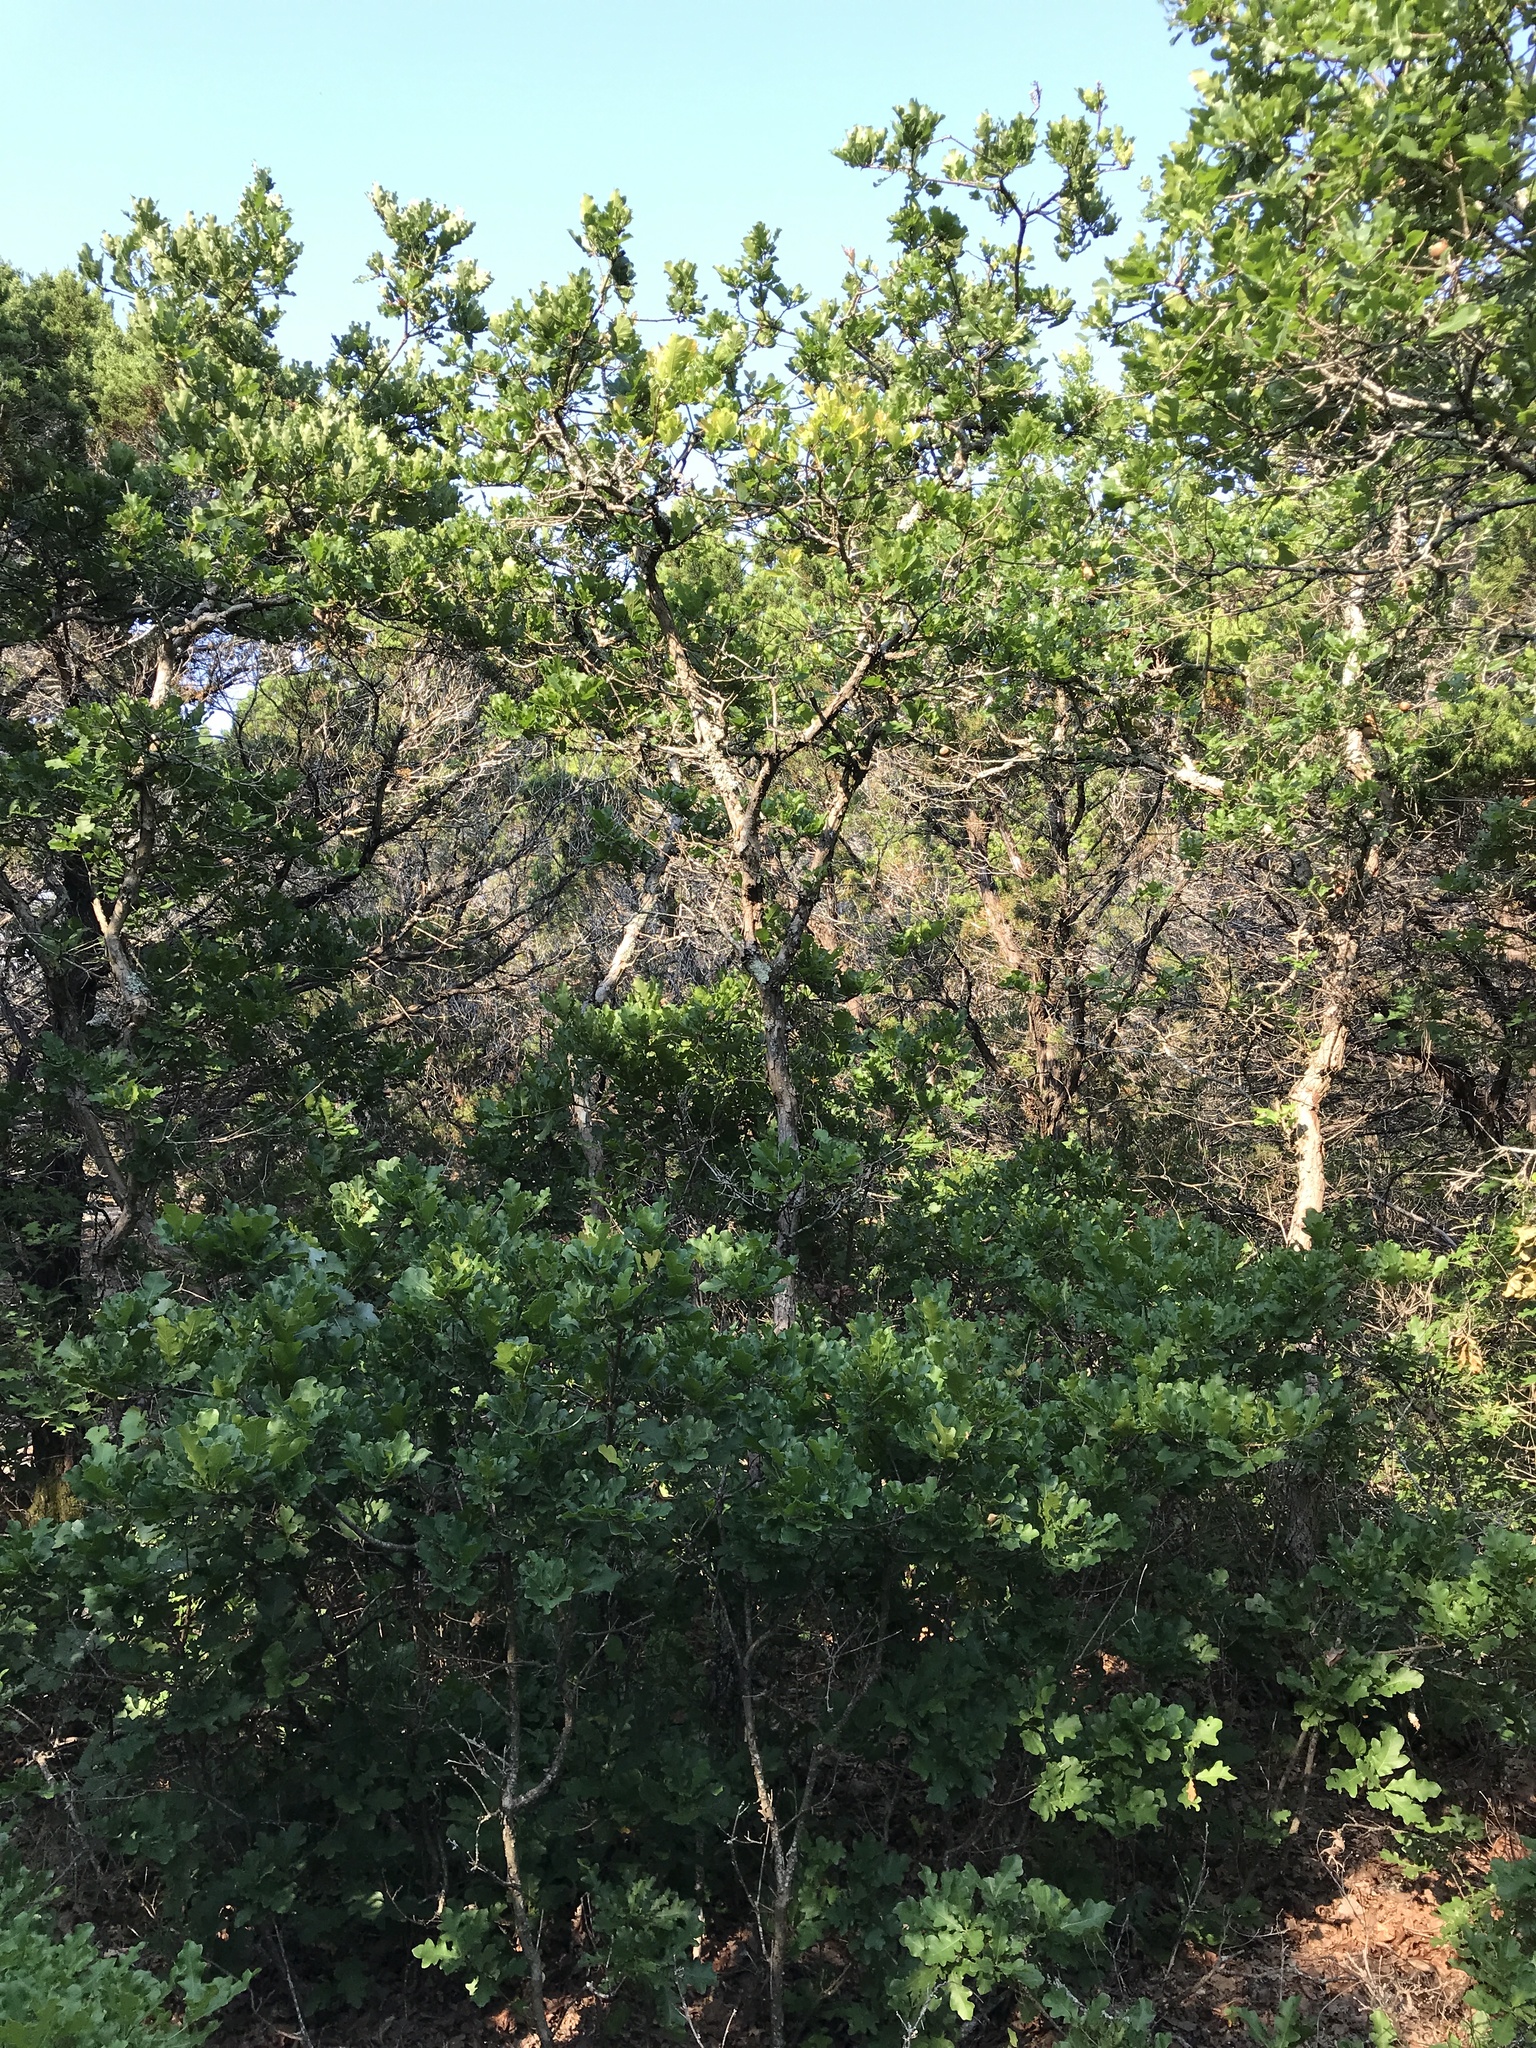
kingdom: Plantae
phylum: Tracheophyta
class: Magnoliopsida
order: Fagales
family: Fagaceae
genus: Quercus
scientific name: Quercus sinuata
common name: Durand oak
